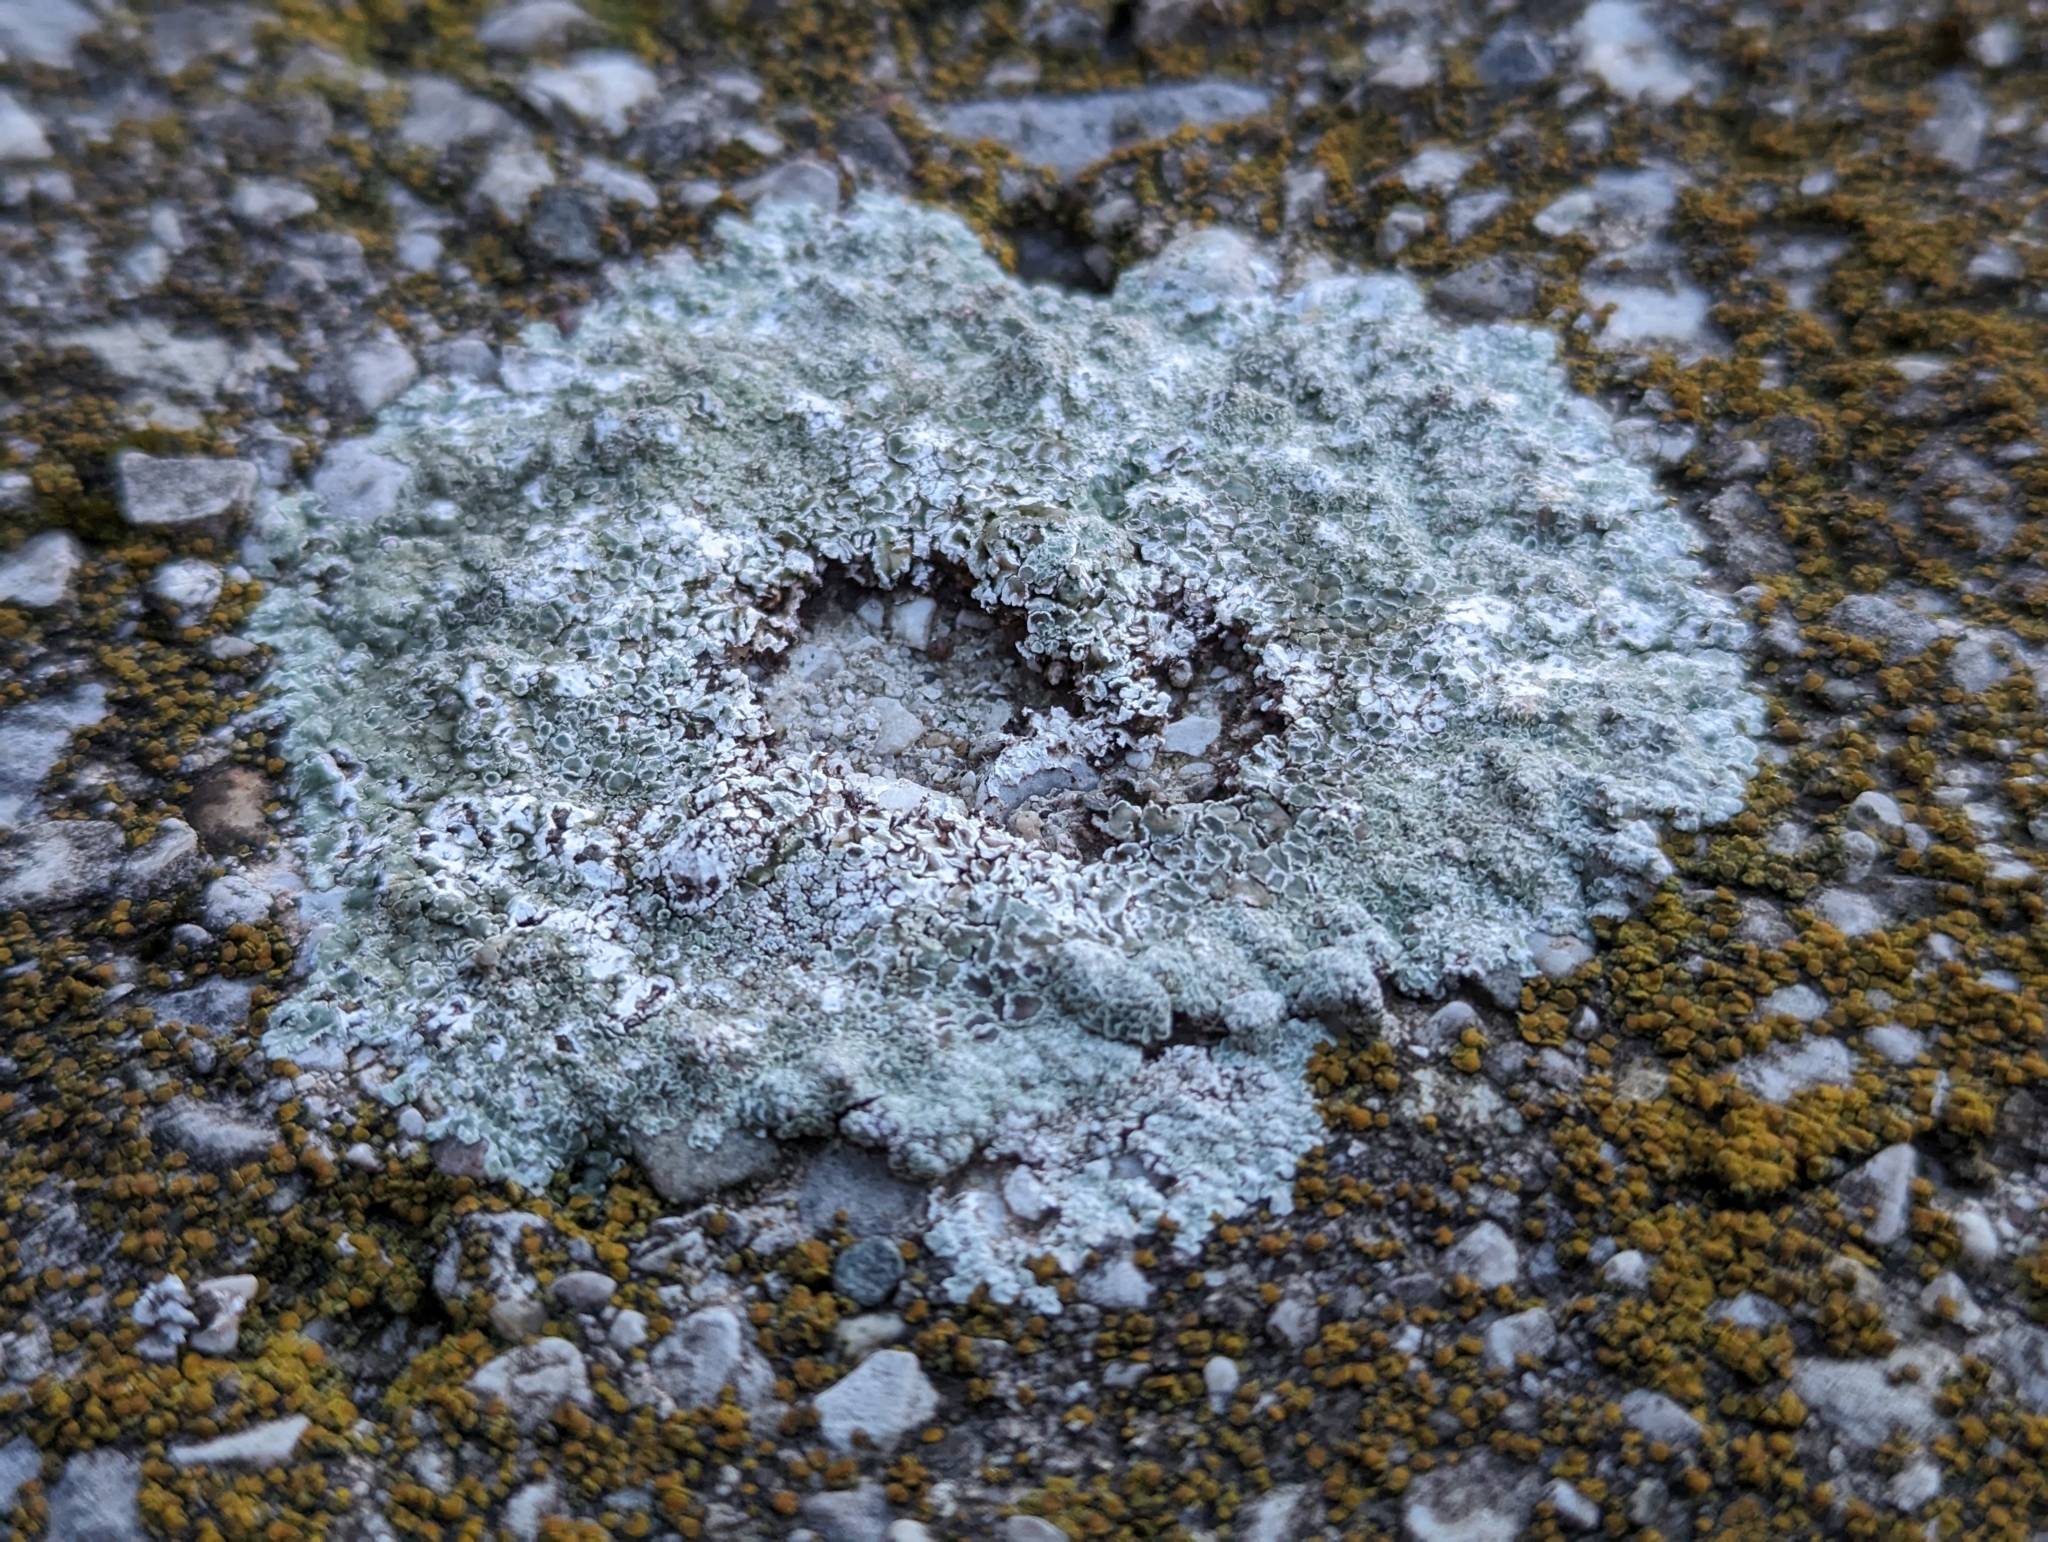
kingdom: Fungi
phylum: Ascomycota
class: Lecanoromycetes
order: Lecanorales
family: Lecanoraceae
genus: Protoparmeliopsis
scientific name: Protoparmeliopsis muralis
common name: Stonewall rim lichen
